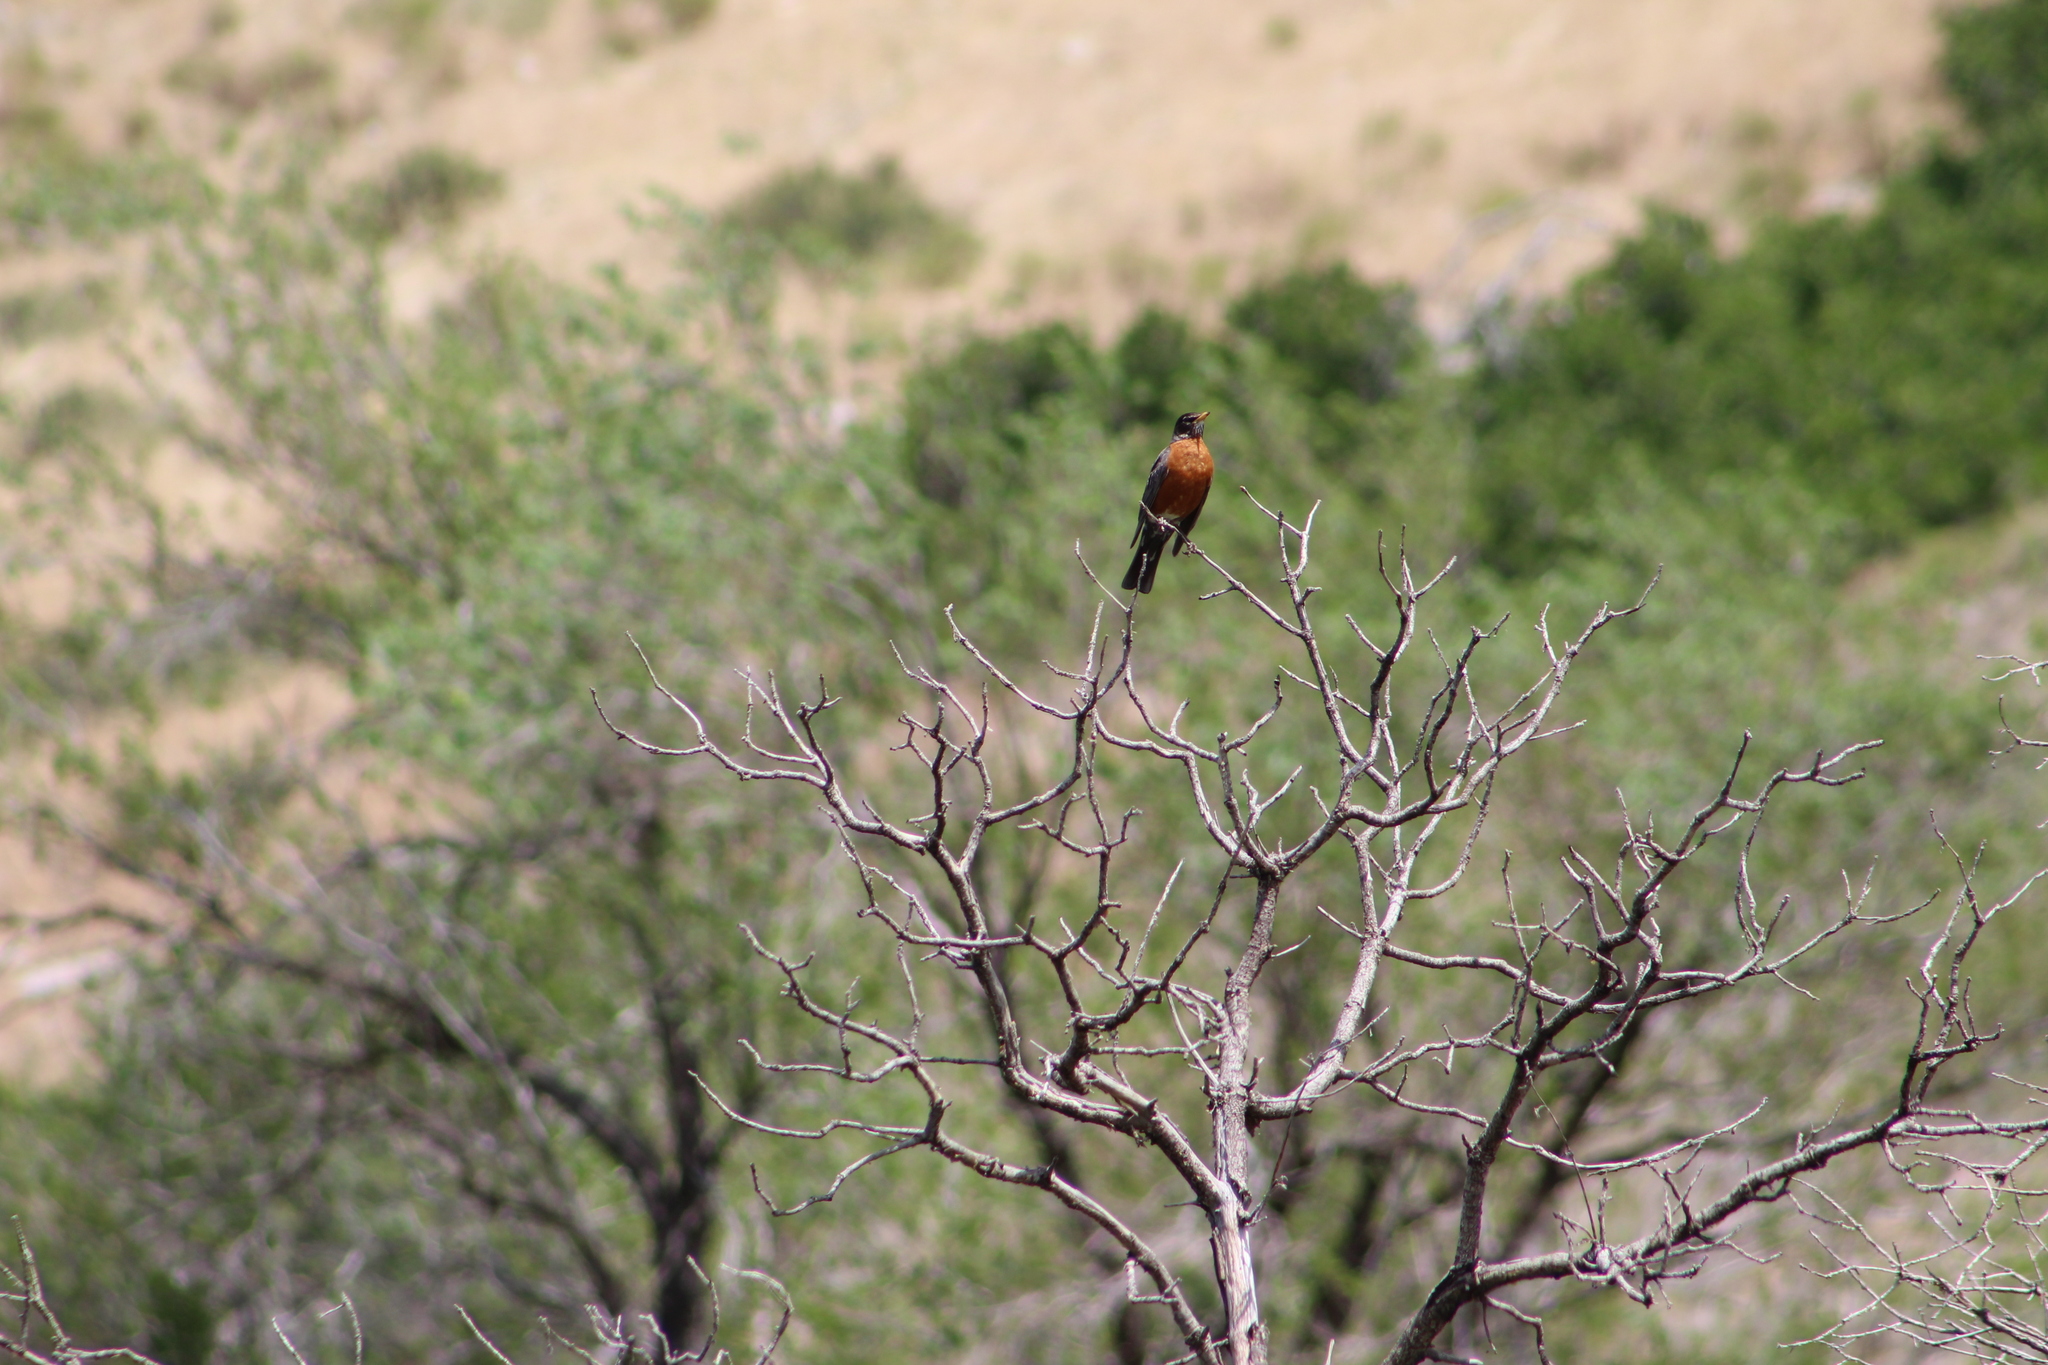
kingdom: Animalia
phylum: Chordata
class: Aves
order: Passeriformes
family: Turdidae
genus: Turdus
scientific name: Turdus migratorius
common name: American robin
